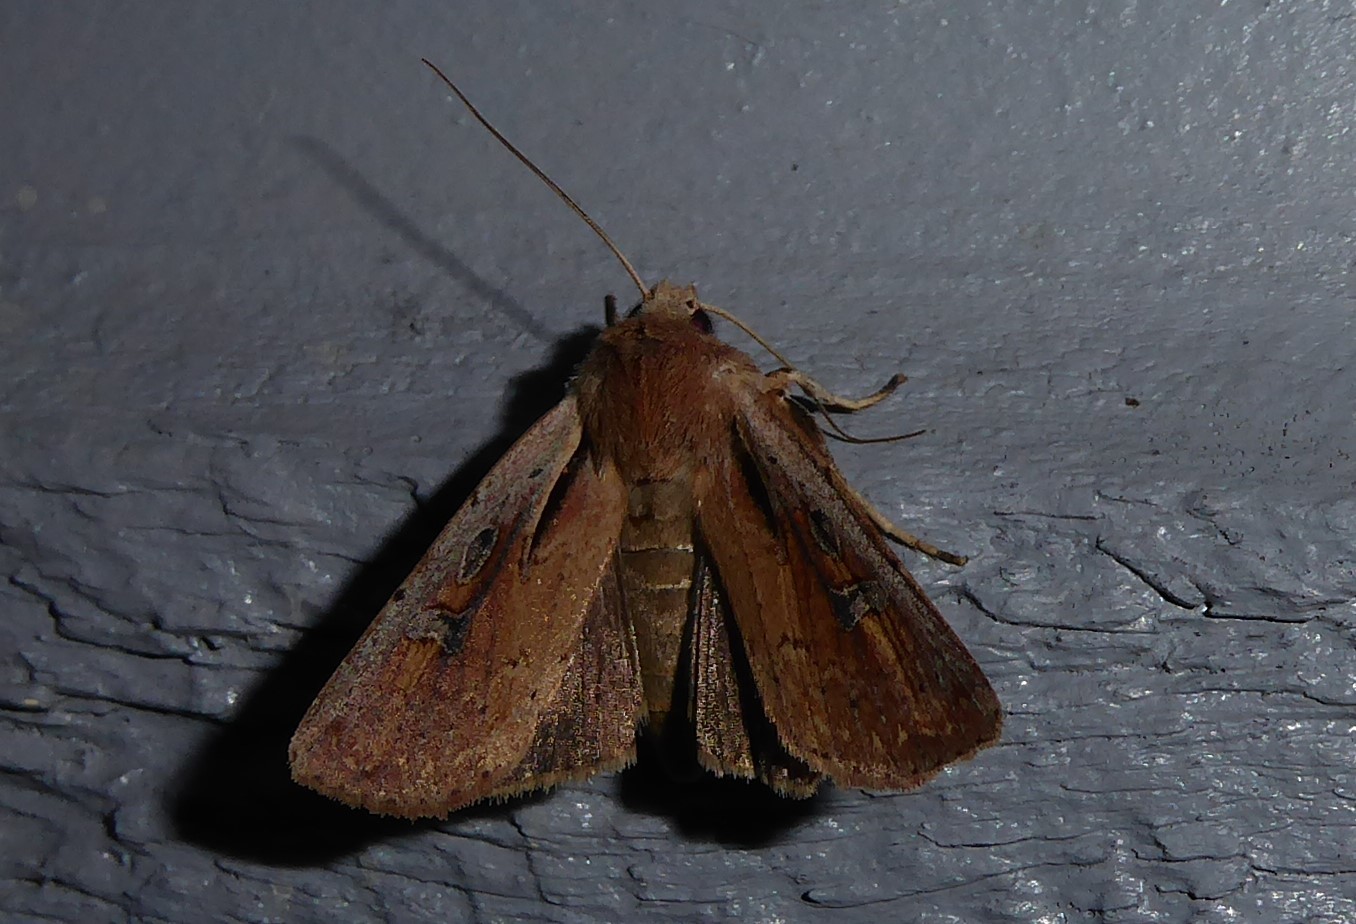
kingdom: Animalia
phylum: Arthropoda
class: Insecta
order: Lepidoptera
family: Noctuidae
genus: Ichneutica
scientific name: Ichneutica atristriga
